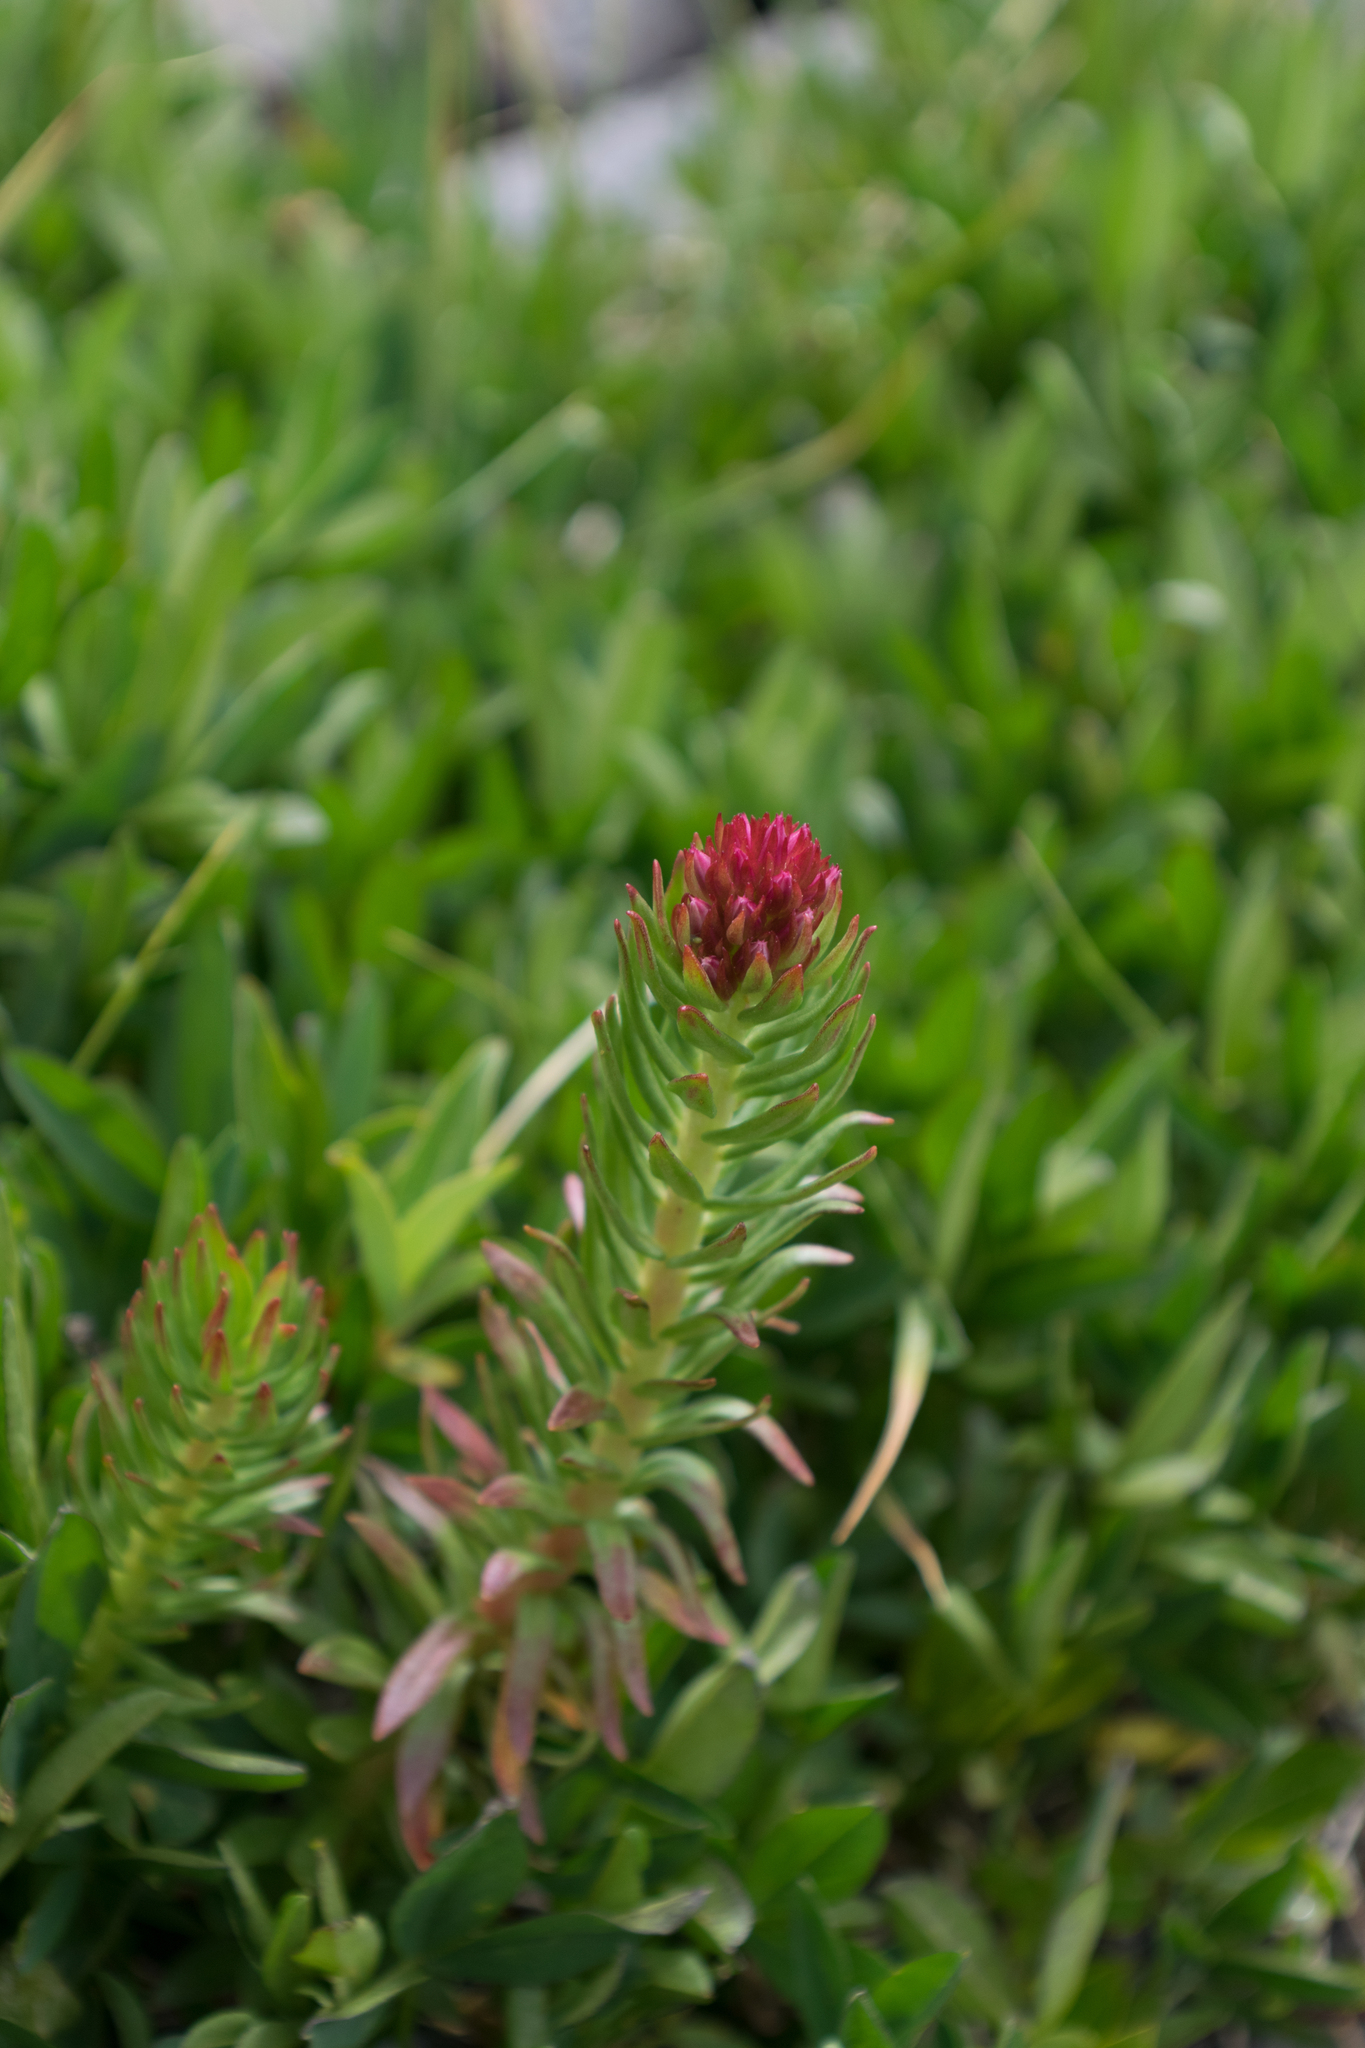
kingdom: Plantae
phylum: Tracheophyta
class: Magnoliopsida
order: Saxifragales
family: Crassulaceae
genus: Rhodiola
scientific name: Rhodiola rhodantha
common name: Red orpine
